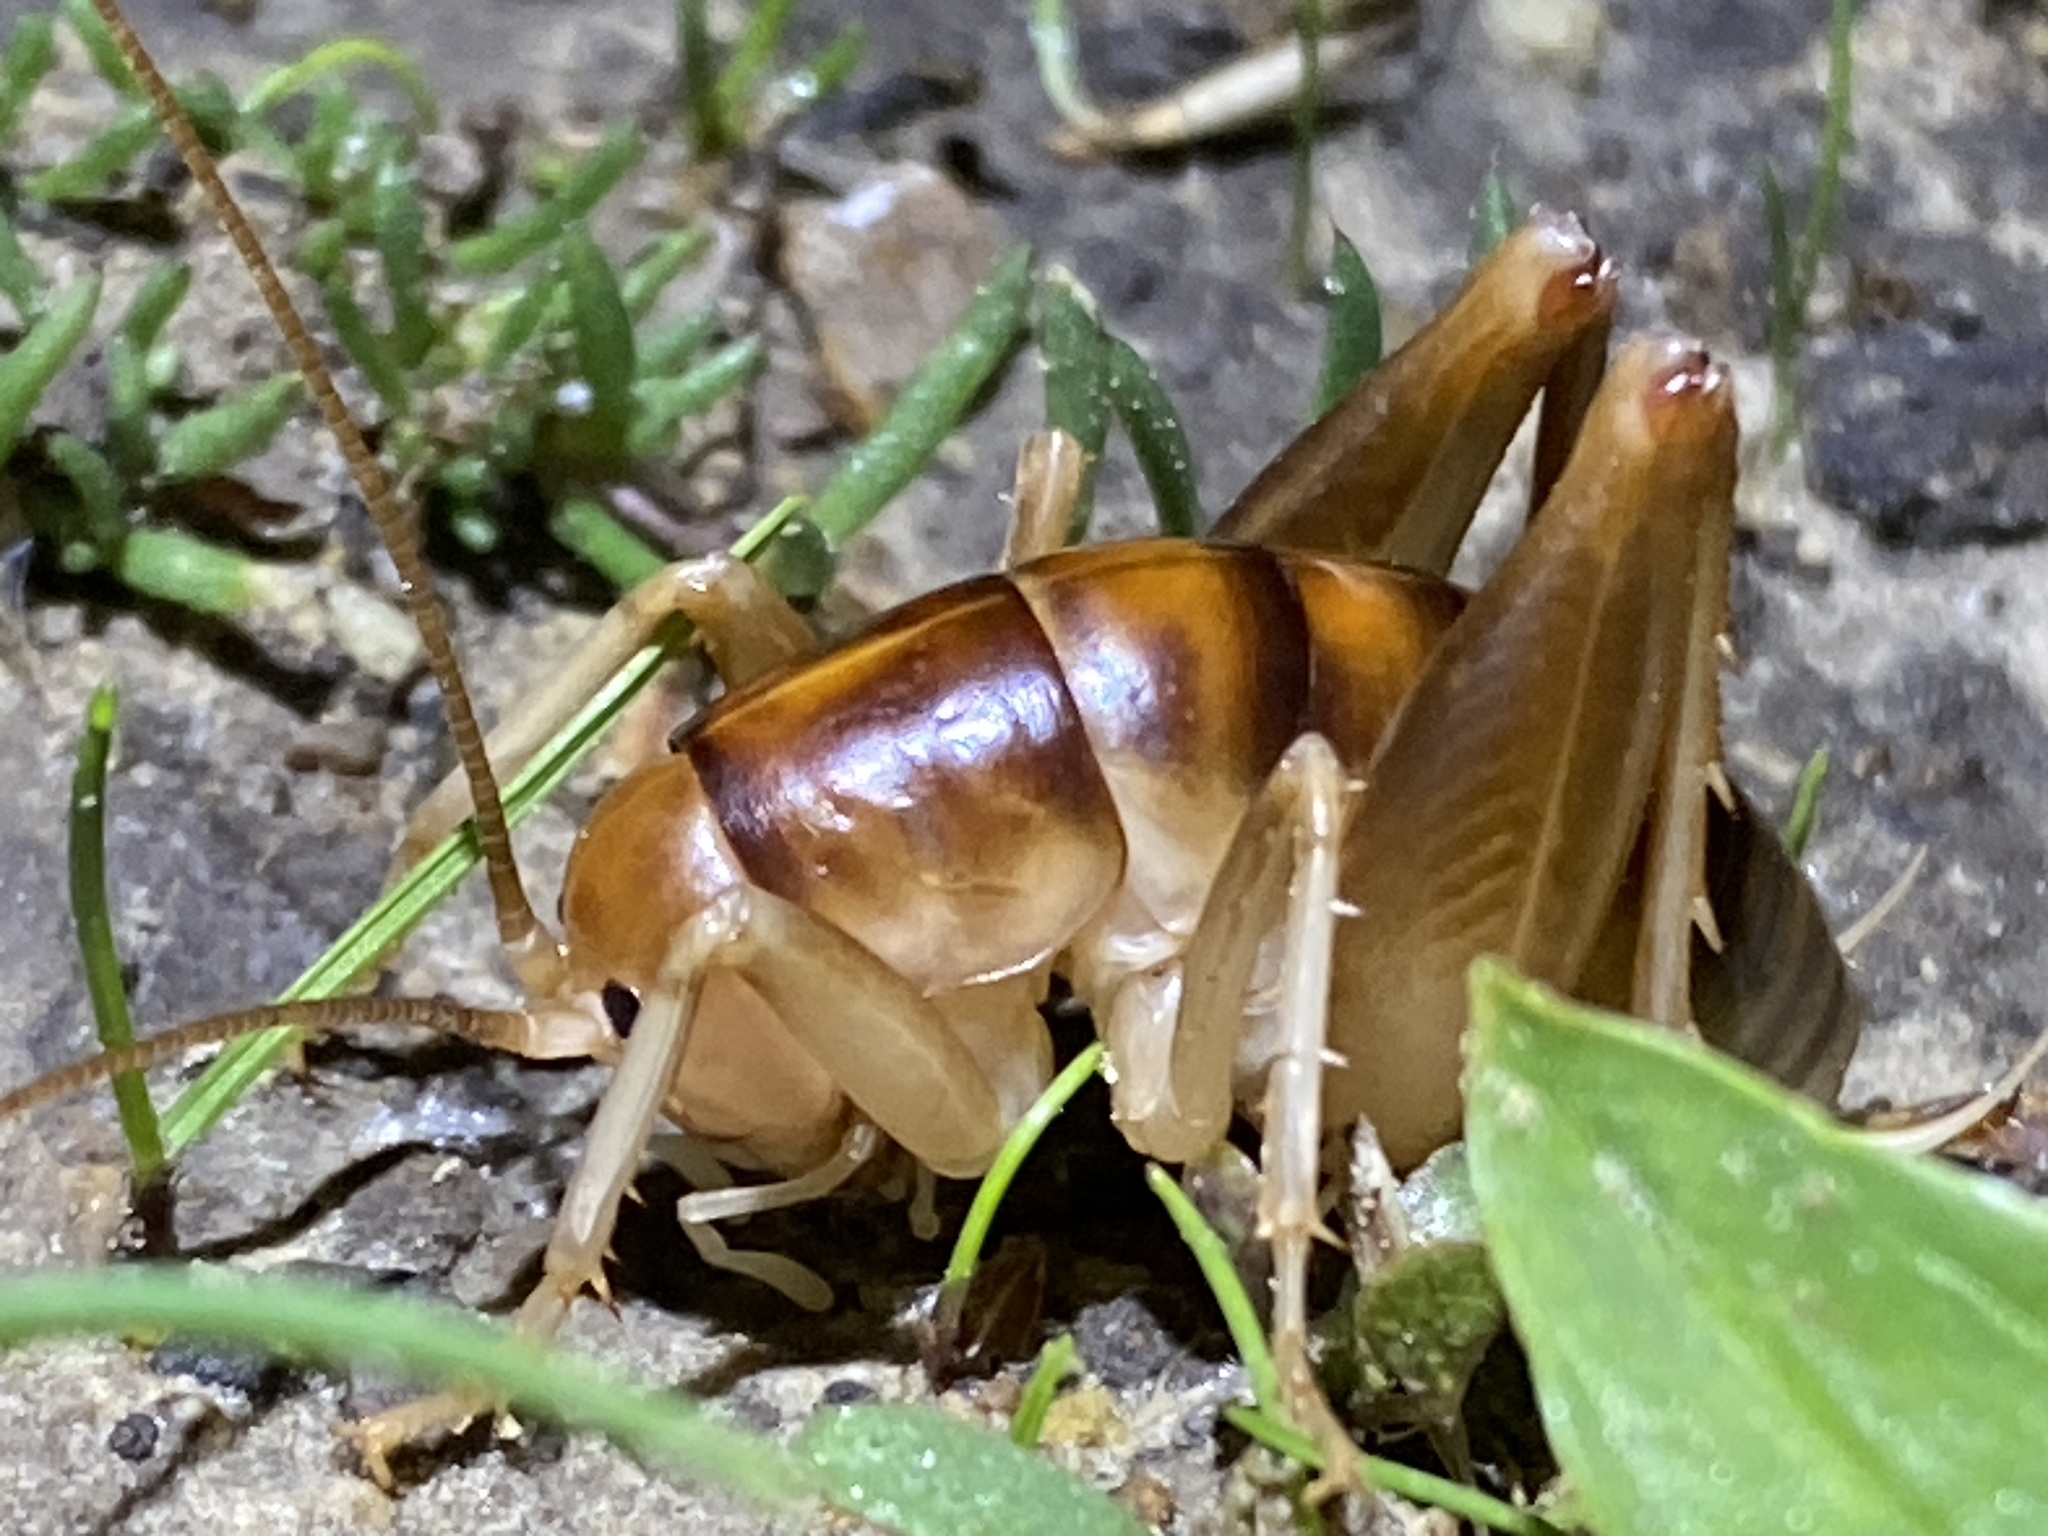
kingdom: Animalia
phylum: Arthropoda
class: Insecta
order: Orthoptera
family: Rhaphidophoridae
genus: Ceuthophilus
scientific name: Ceuthophilus californianus
